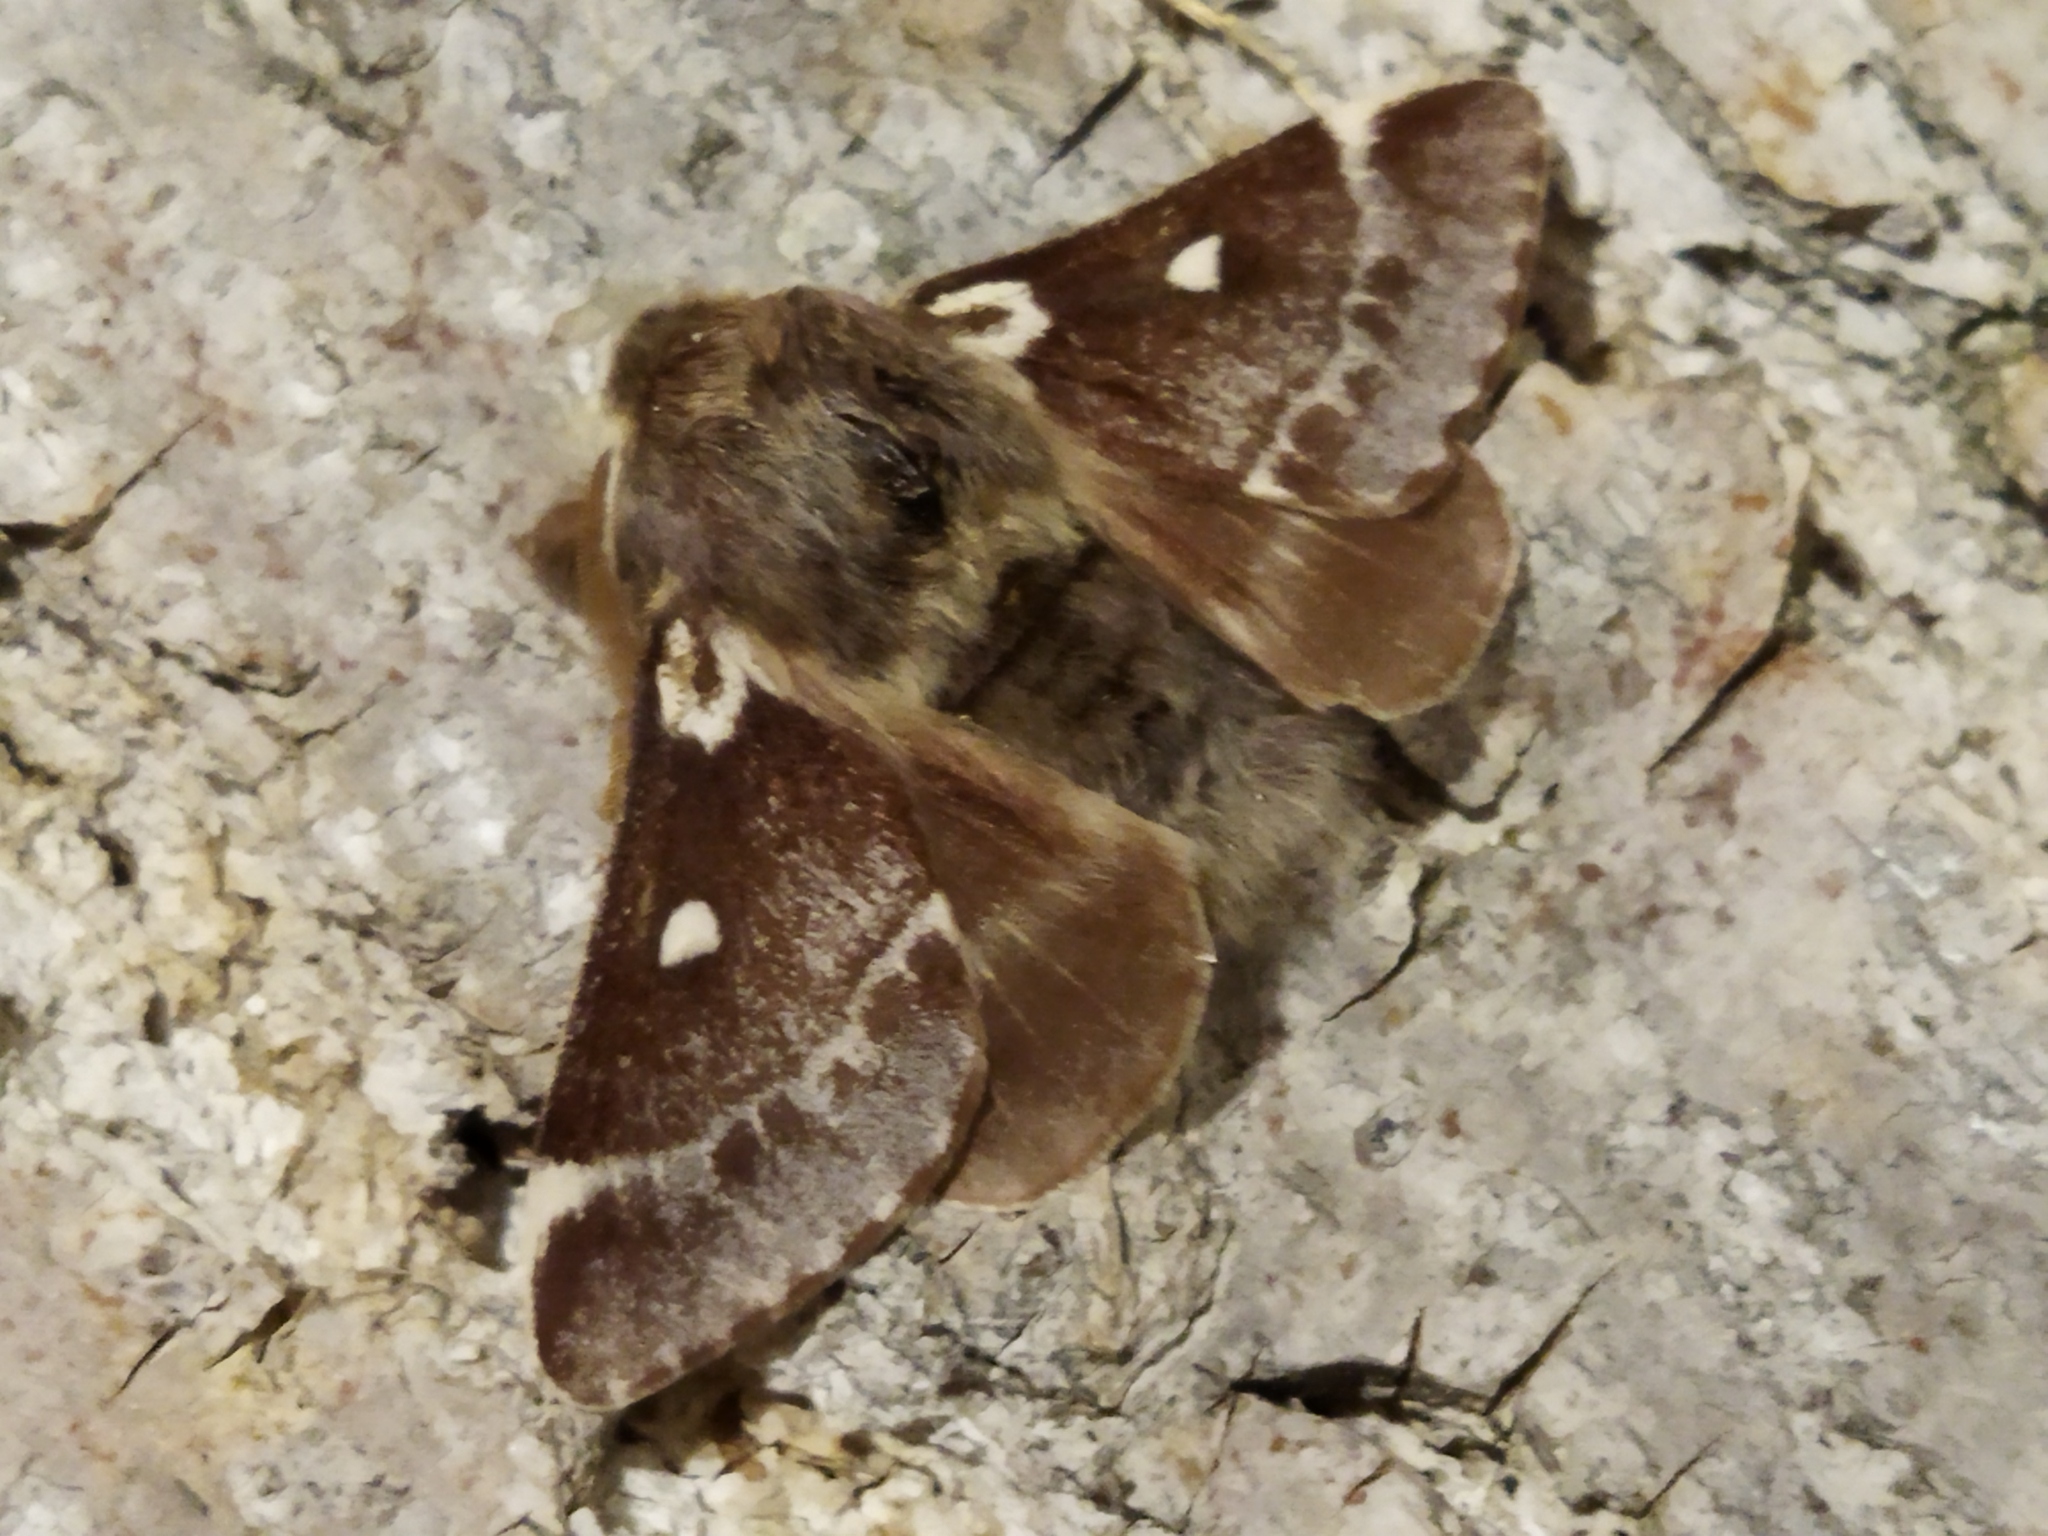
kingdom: Animalia
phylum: Arthropoda
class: Insecta
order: Lepidoptera
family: Lasiocampidae
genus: Eriogaster
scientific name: Eriogaster lanestris
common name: Small eggar
